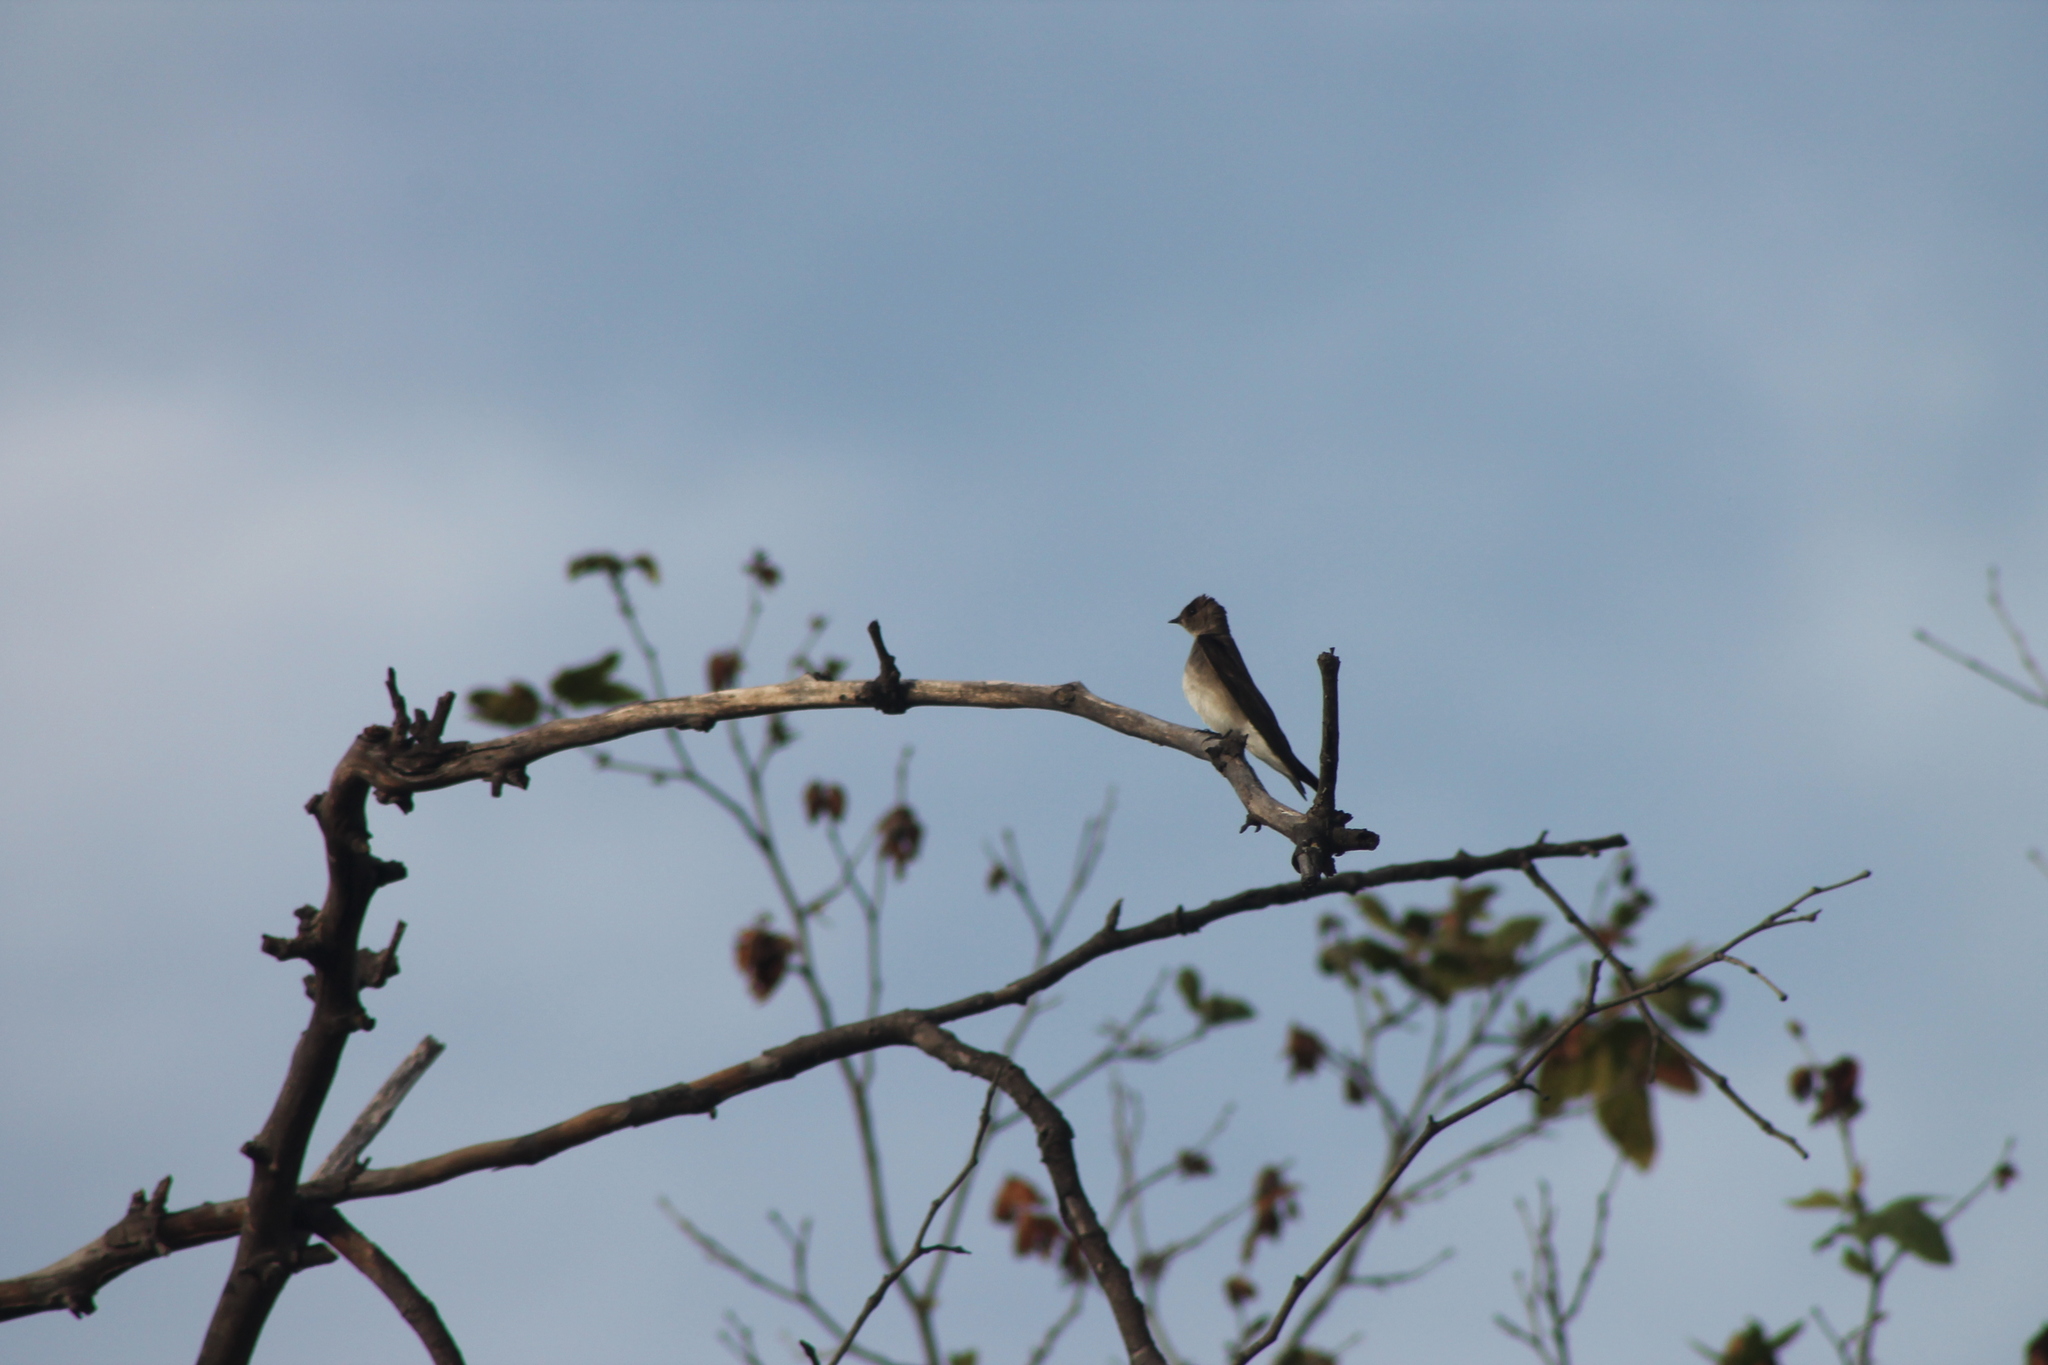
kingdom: Animalia
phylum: Chordata
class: Aves
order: Passeriformes
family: Hirundinidae
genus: Stelgidopteryx
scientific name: Stelgidopteryx serripennis
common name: Northern rough-winged swallow
